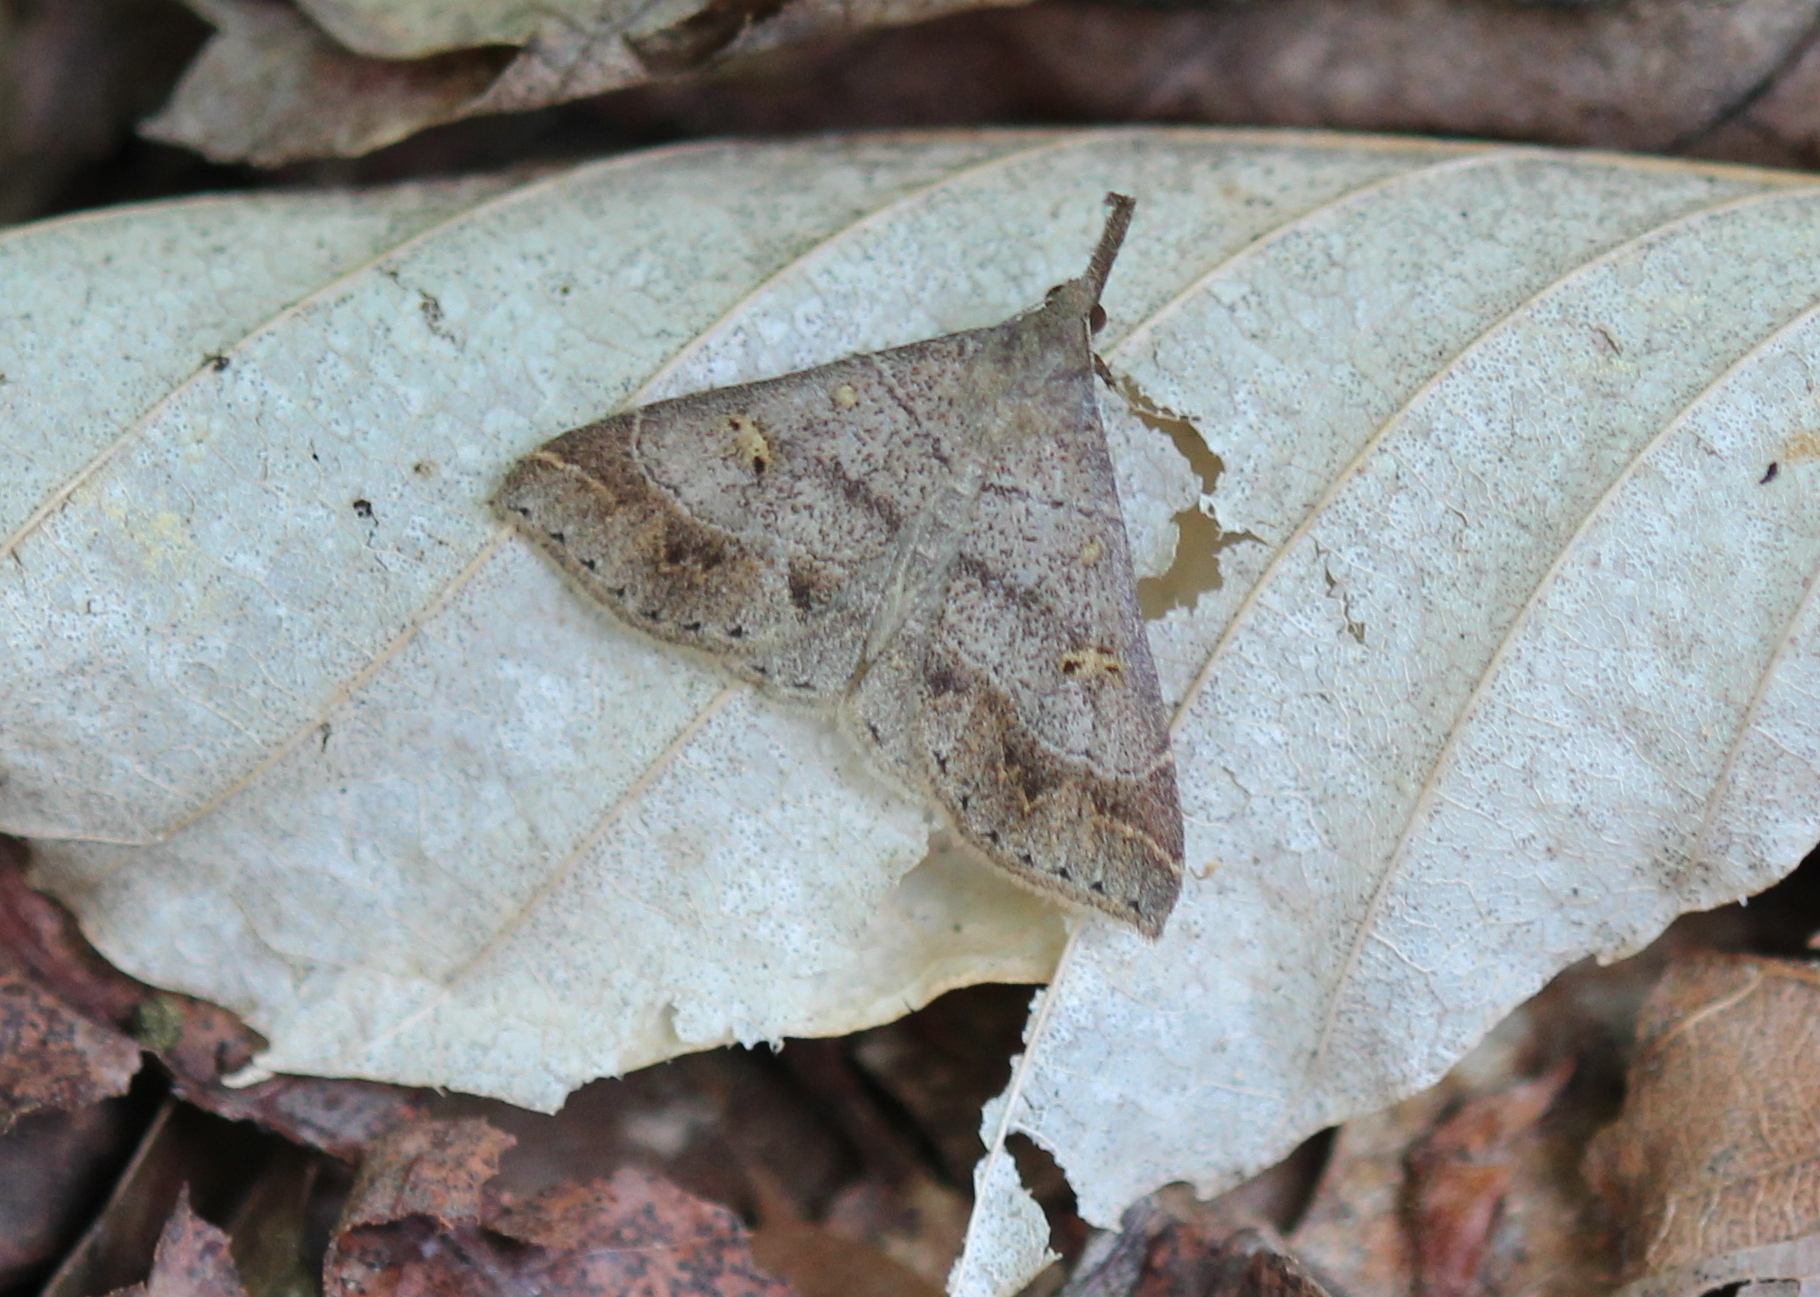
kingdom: Animalia
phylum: Arthropoda
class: Insecta
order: Lepidoptera
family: Erebidae
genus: Renia
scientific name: Renia flavipunctalis
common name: Yellow-spotted renia moth
